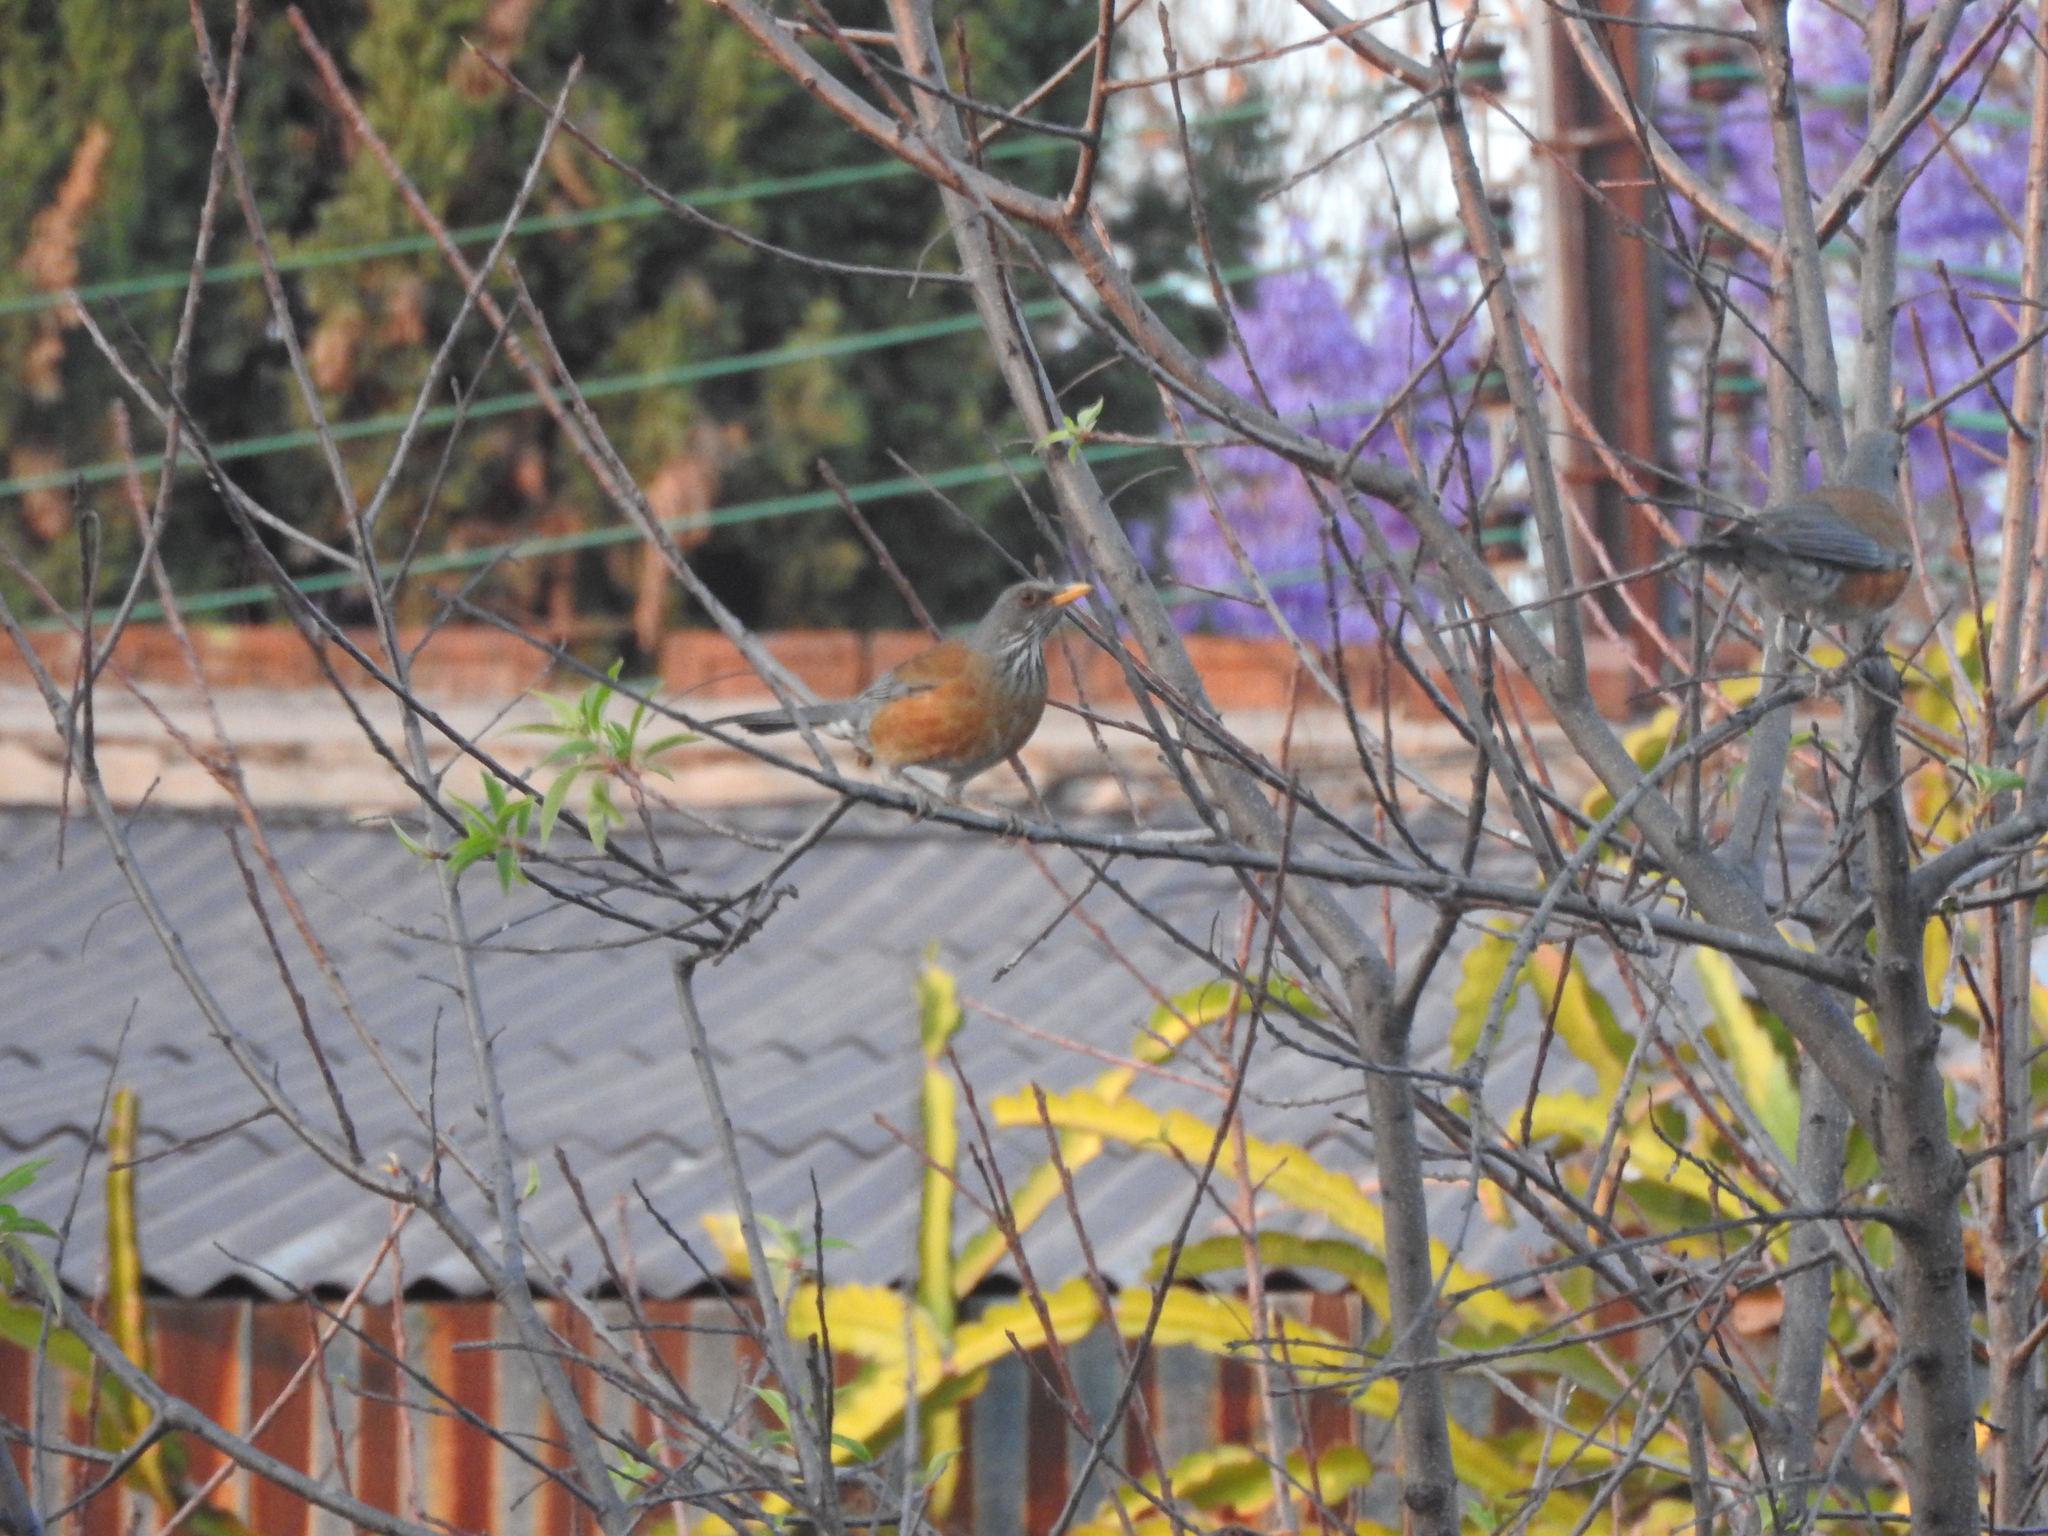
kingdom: Animalia
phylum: Chordata
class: Aves
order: Passeriformes
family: Turdidae
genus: Turdus
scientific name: Turdus rufopalliatus
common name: Rufous-backed robin
